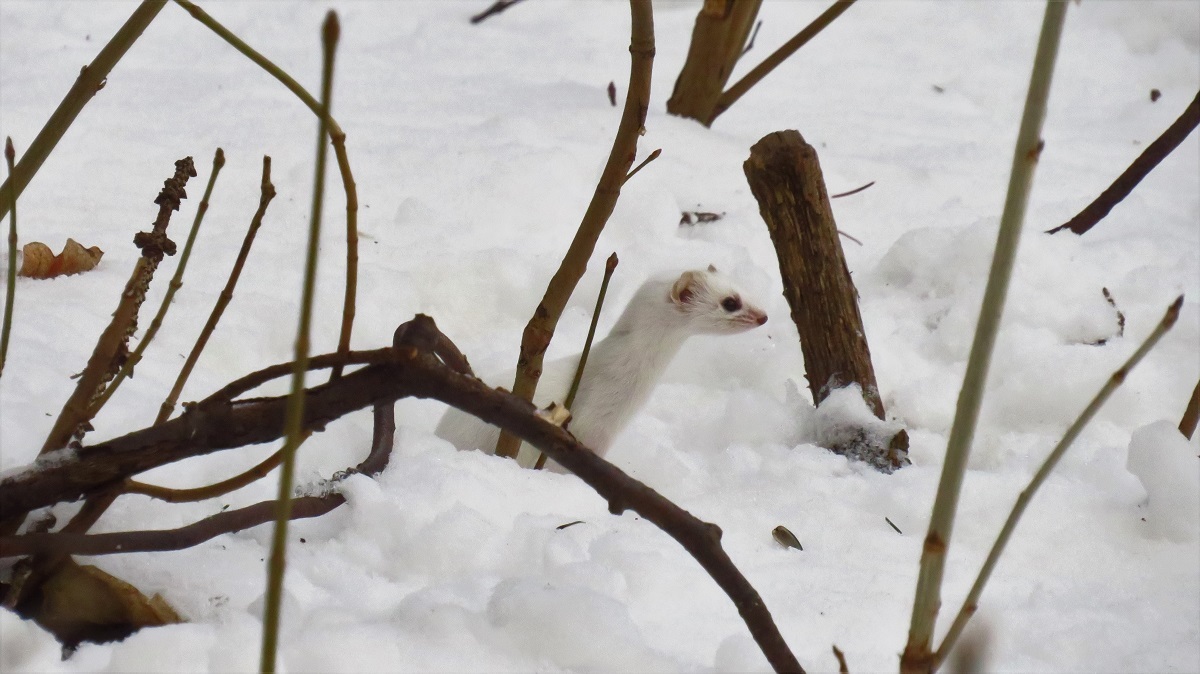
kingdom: Animalia
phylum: Chordata
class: Mammalia
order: Carnivora
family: Mustelidae
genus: Mustela
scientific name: Mustela nivalis
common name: Least weasel
